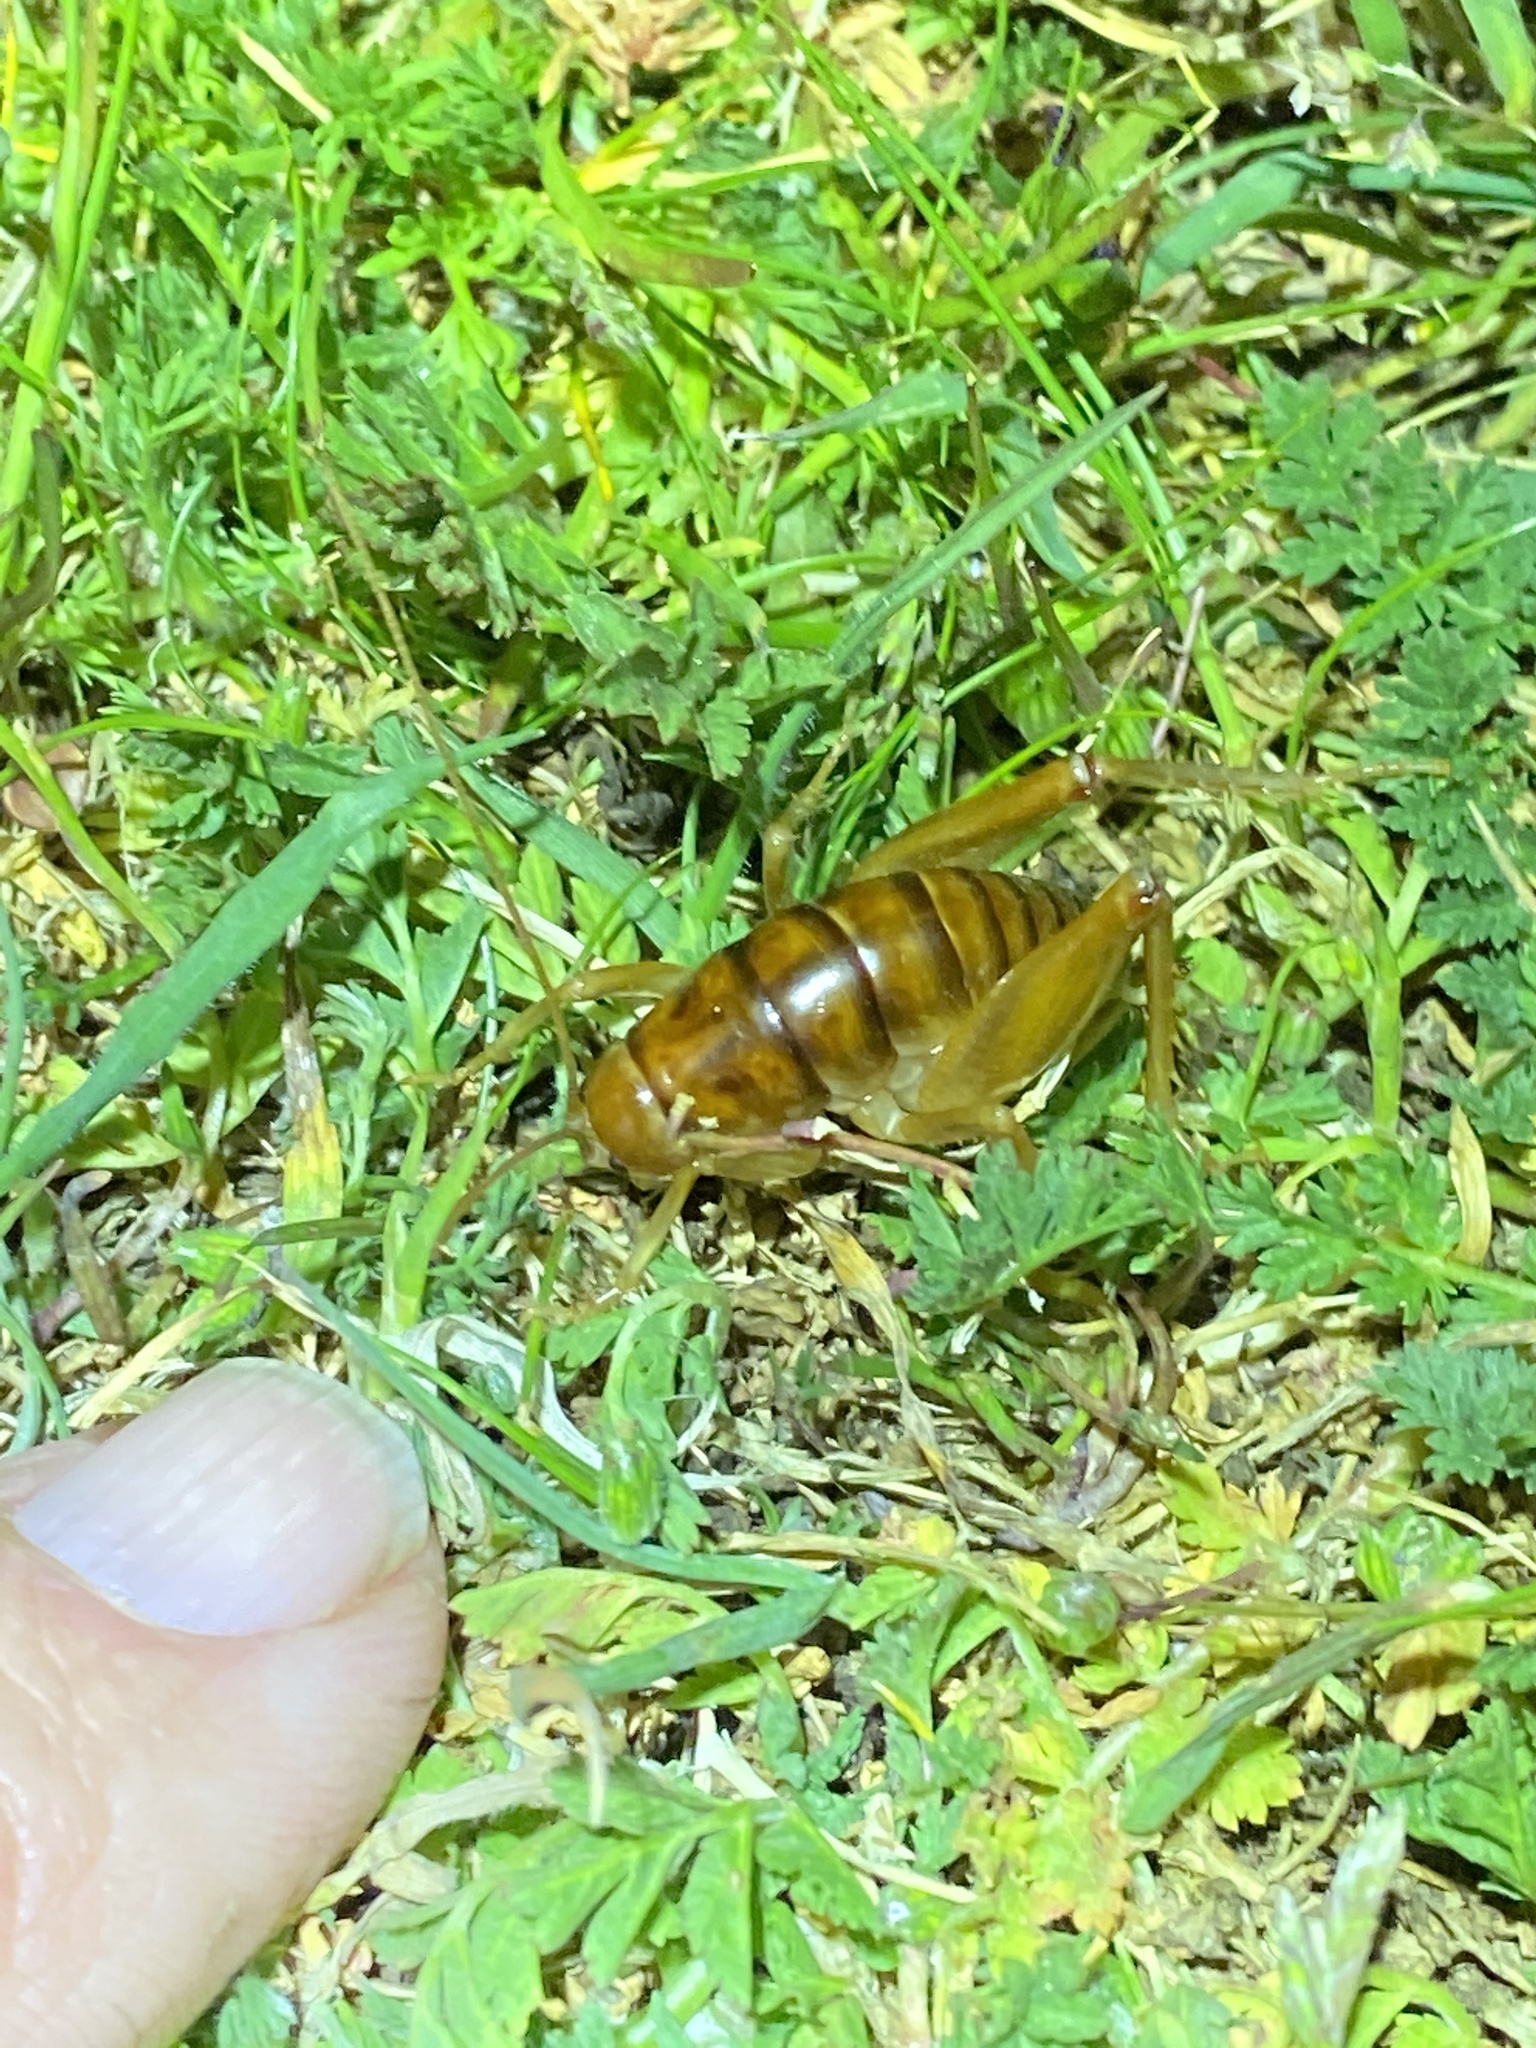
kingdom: Animalia
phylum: Arthropoda
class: Insecta
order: Orthoptera
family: Rhaphidophoridae
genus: Ceuthophilus
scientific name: Ceuthophilus californianus
